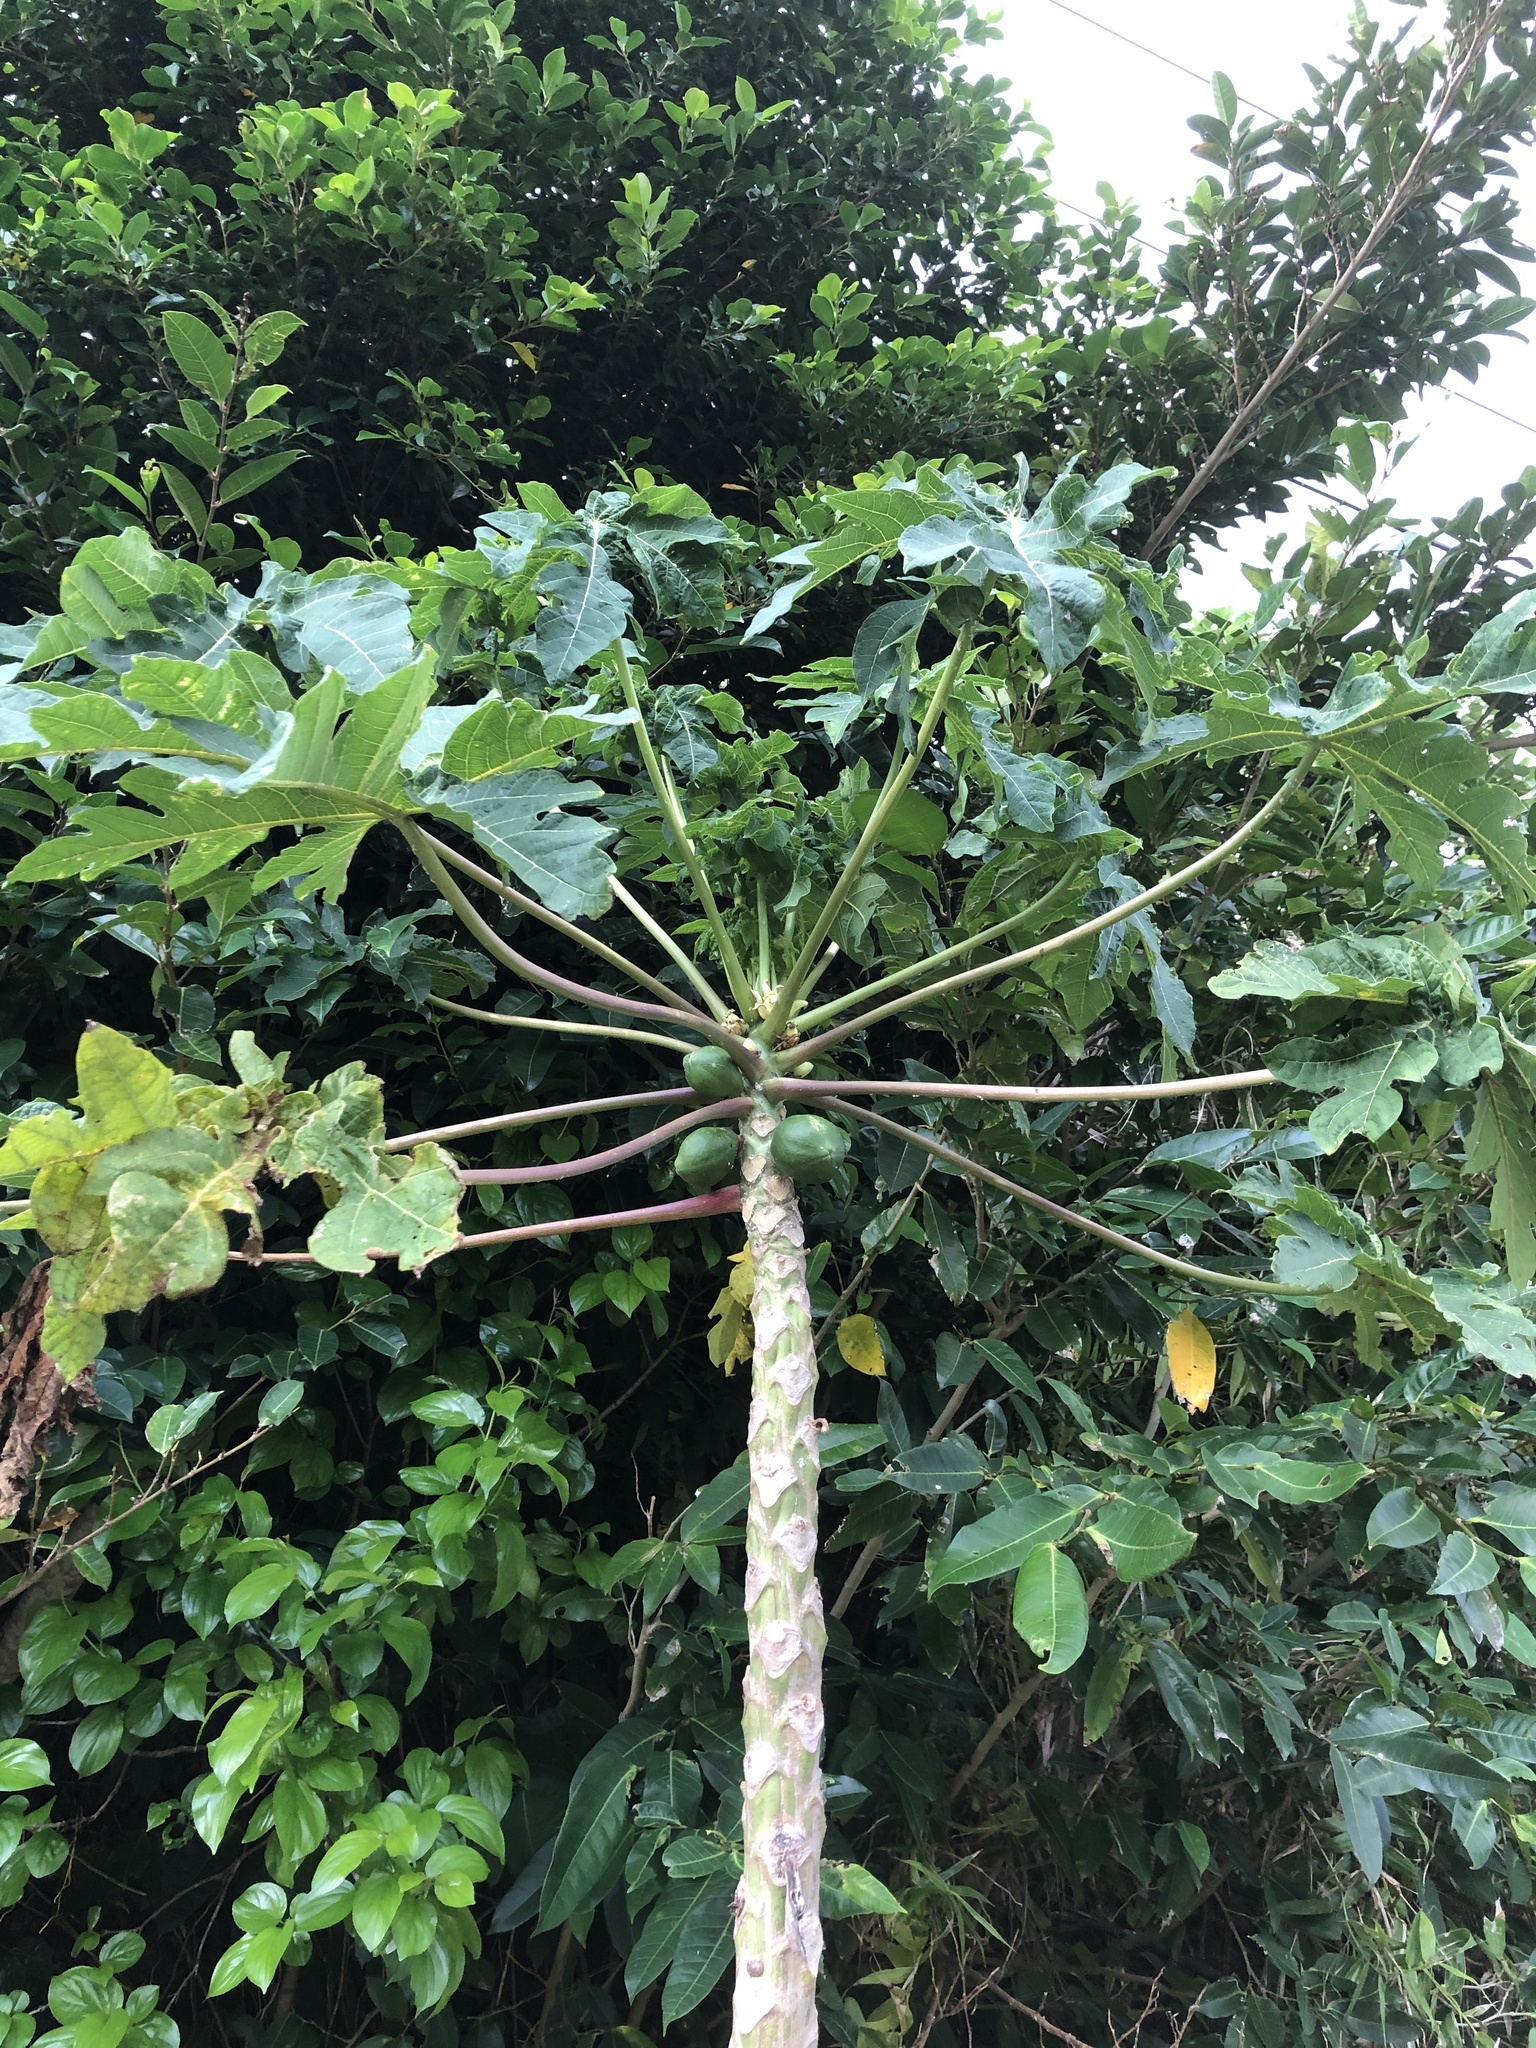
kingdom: Plantae
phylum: Tracheophyta
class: Magnoliopsida
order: Brassicales
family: Caricaceae
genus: Carica
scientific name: Carica papaya
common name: Papaya
